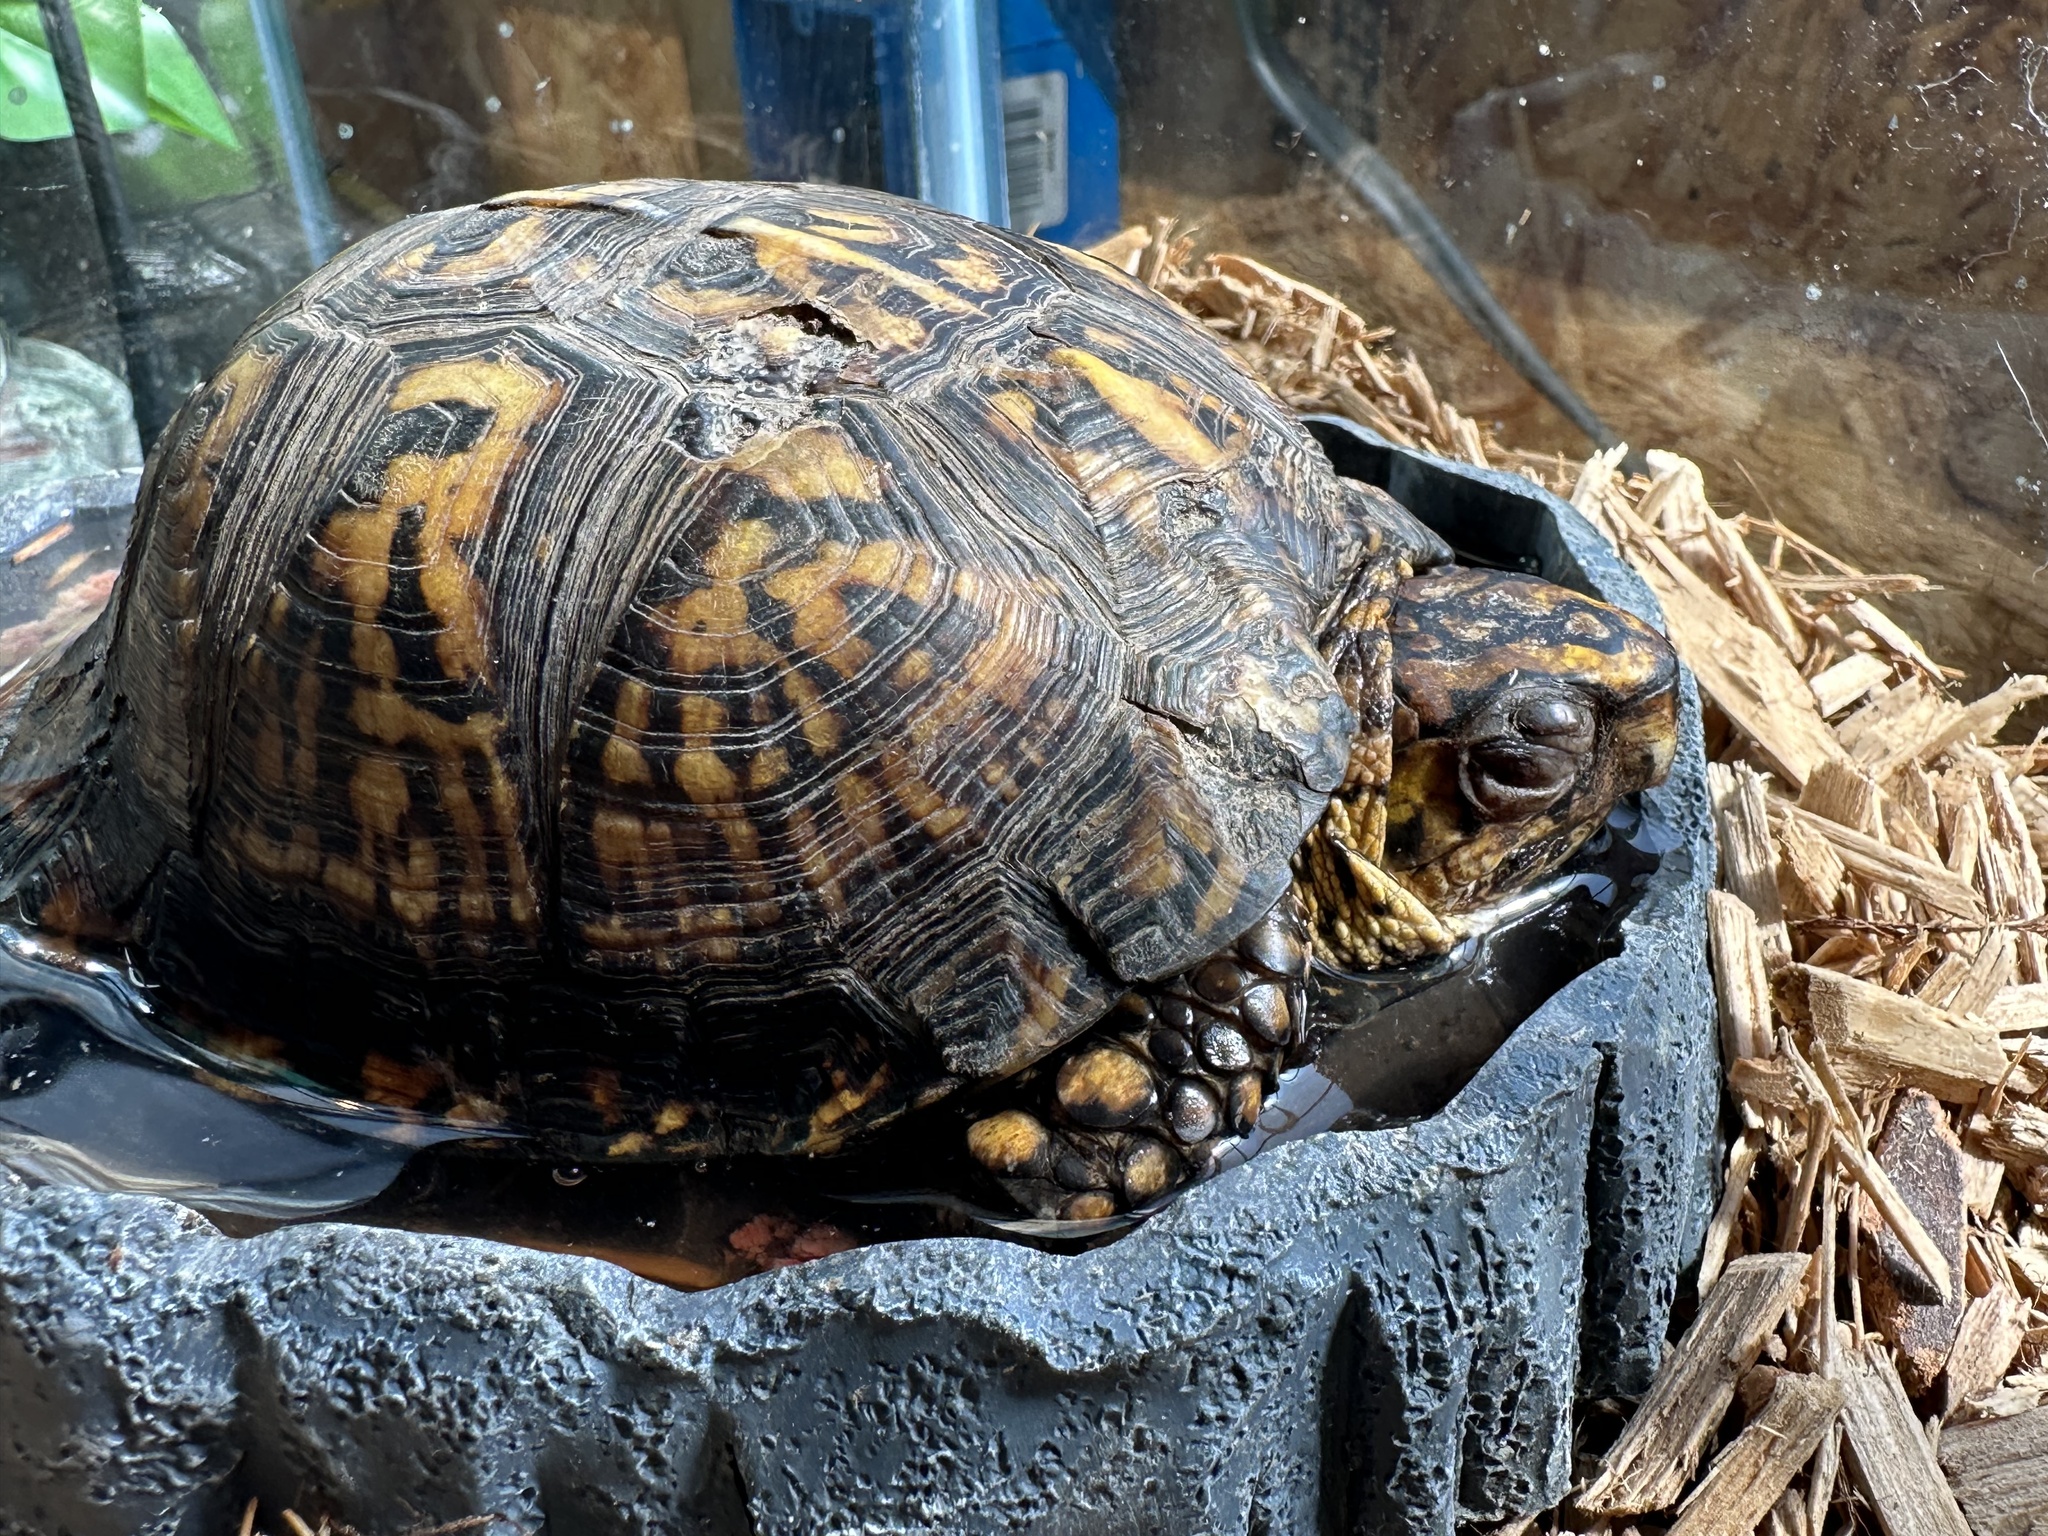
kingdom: Animalia
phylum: Chordata
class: Testudines
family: Emydidae
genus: Terrapene
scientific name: Terrapene carolina
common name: Common box turtle
